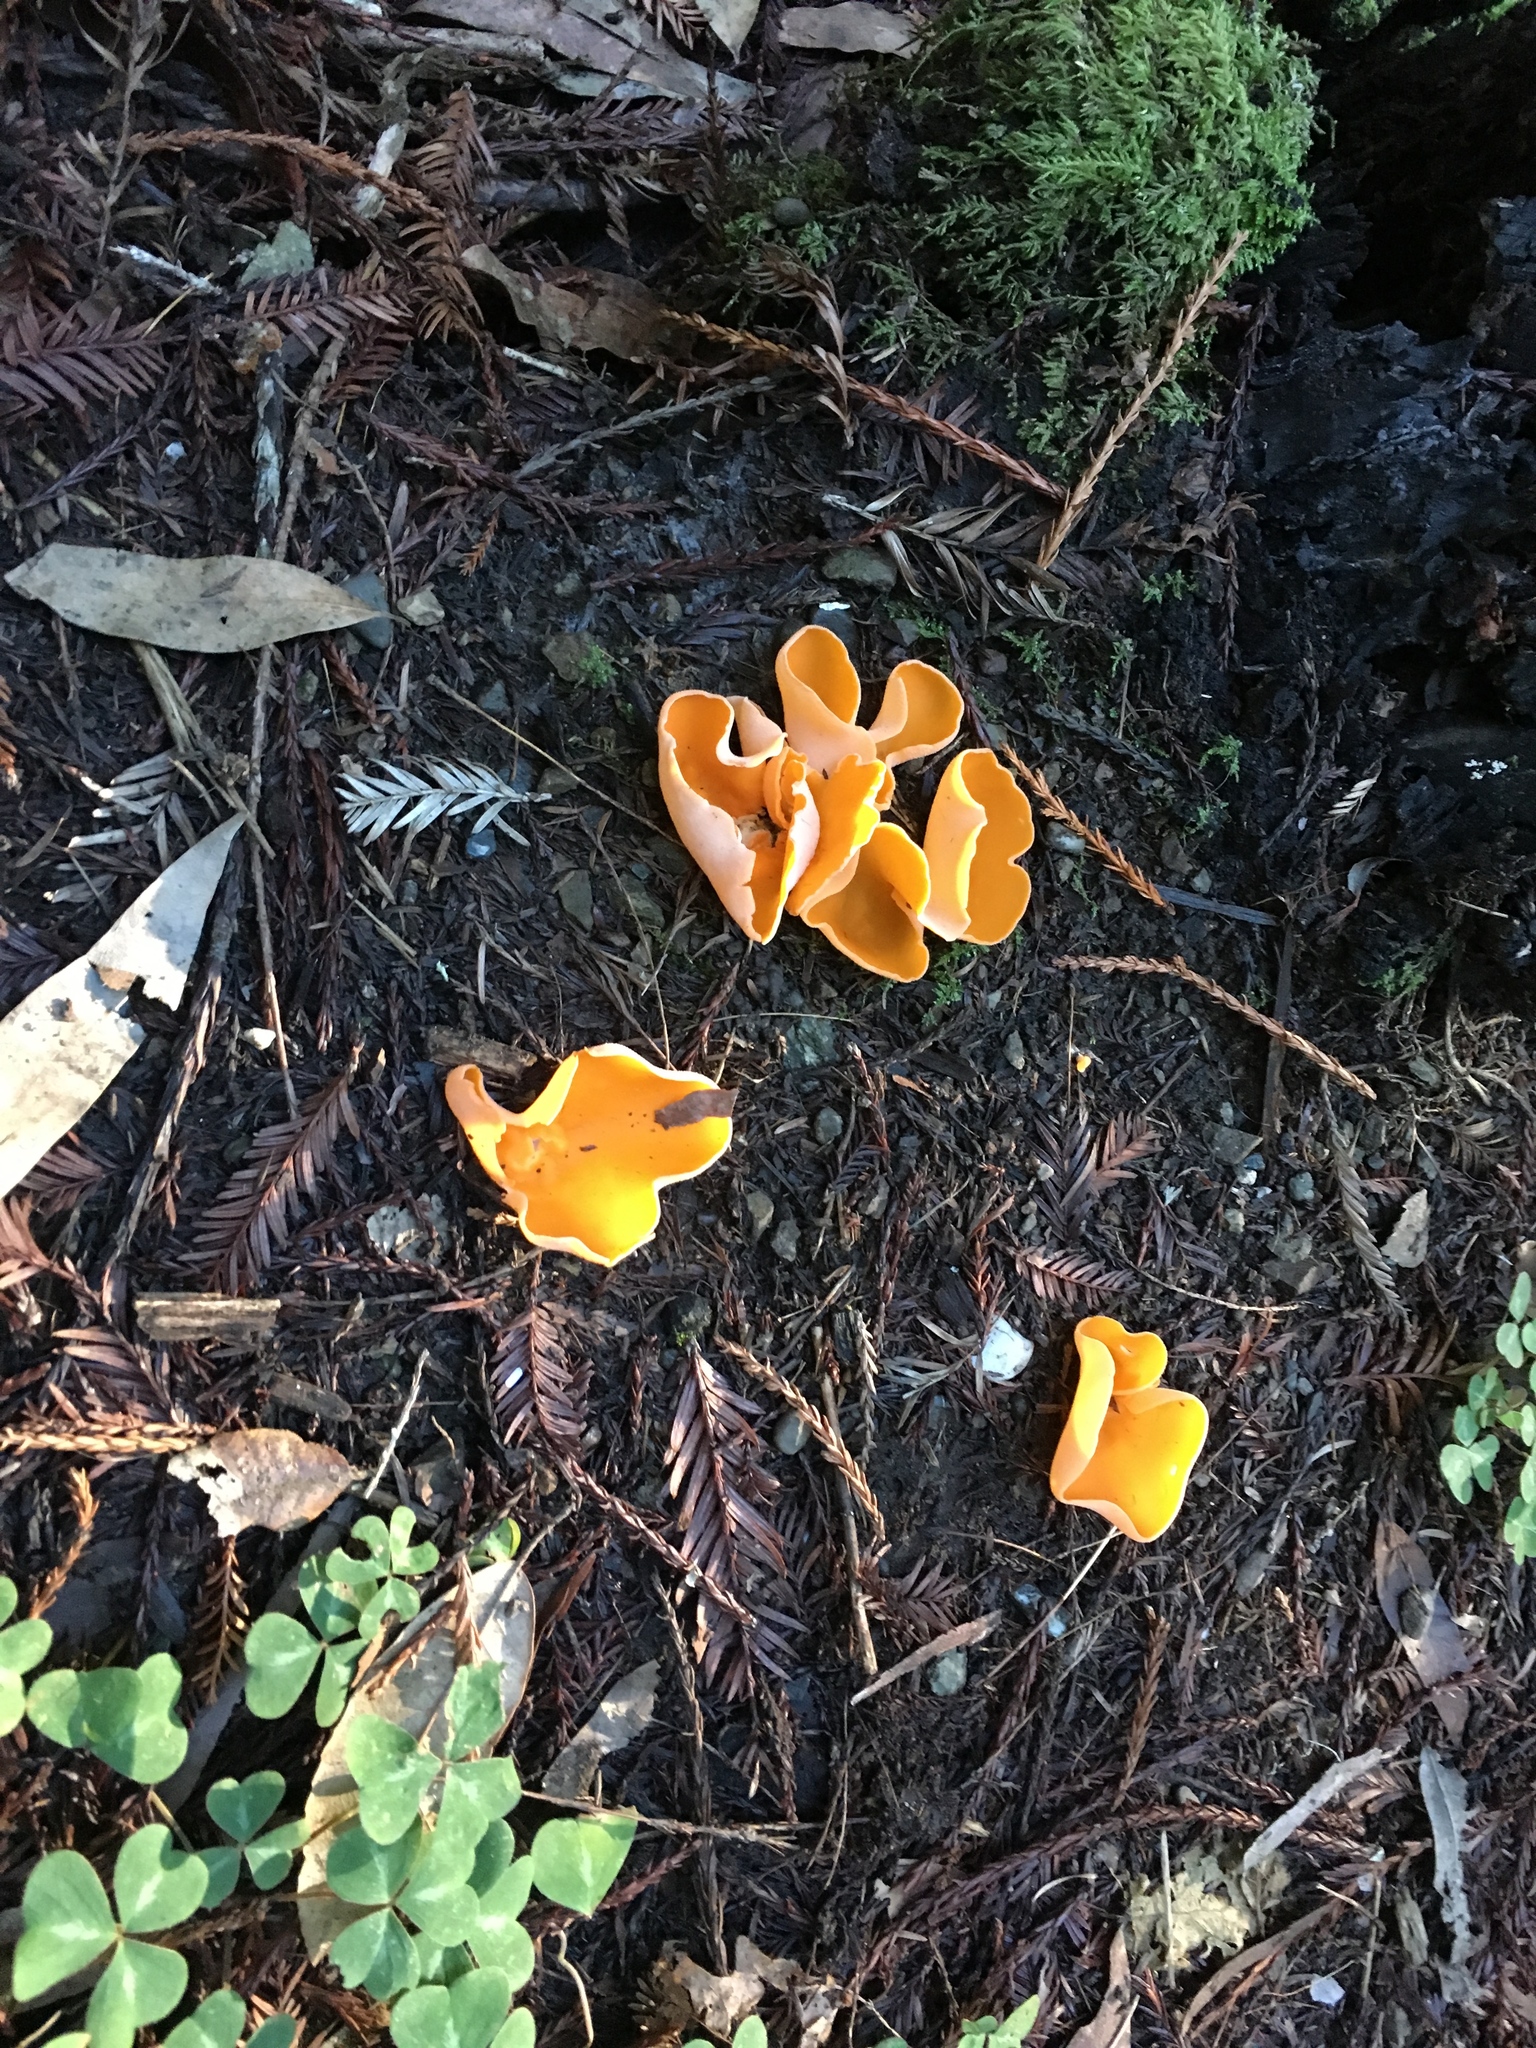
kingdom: Fungi
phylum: Ascomycota
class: Pezizomycetes
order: Pezizales
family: Pyronemataceae
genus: Aleuria
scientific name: Aleuria aurantia
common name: Orange peel fungus
